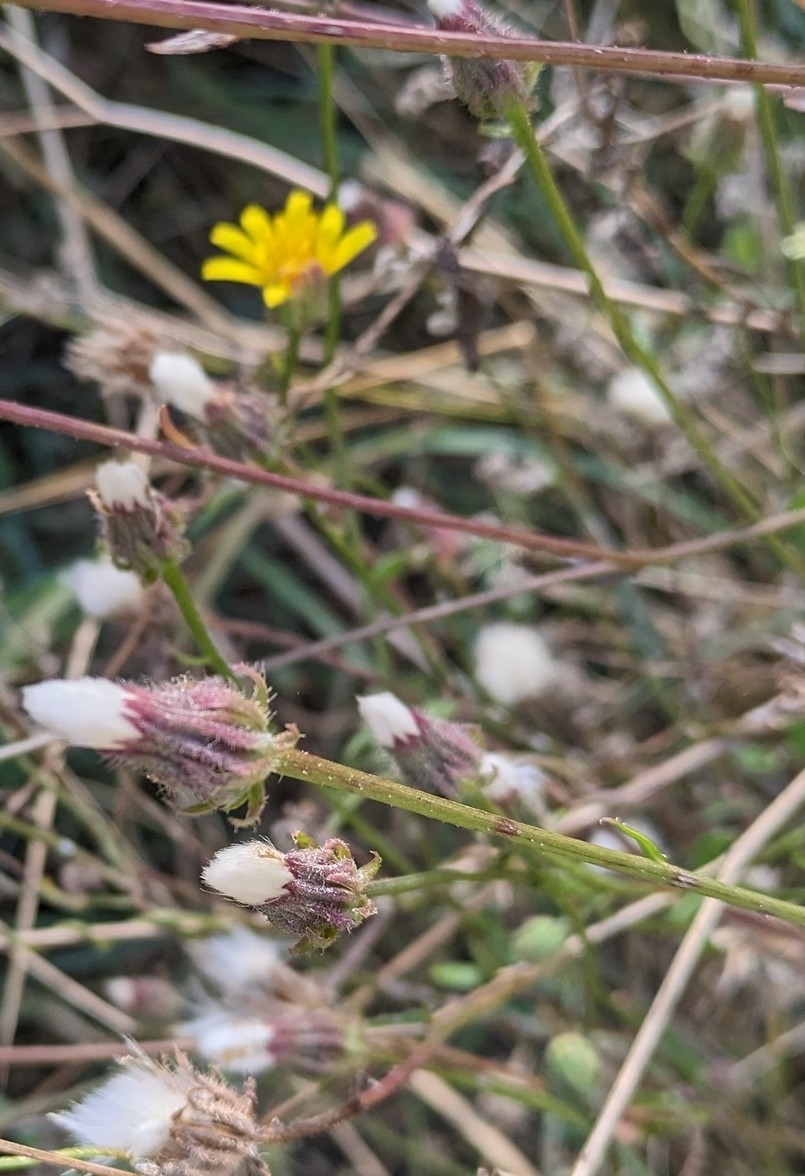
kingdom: Plantae
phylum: Tracheophyta
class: Magnoliopsida
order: Asterales
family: Asteraceae
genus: Crepis
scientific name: Crepis foetida
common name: Stinking hawk's-beard
